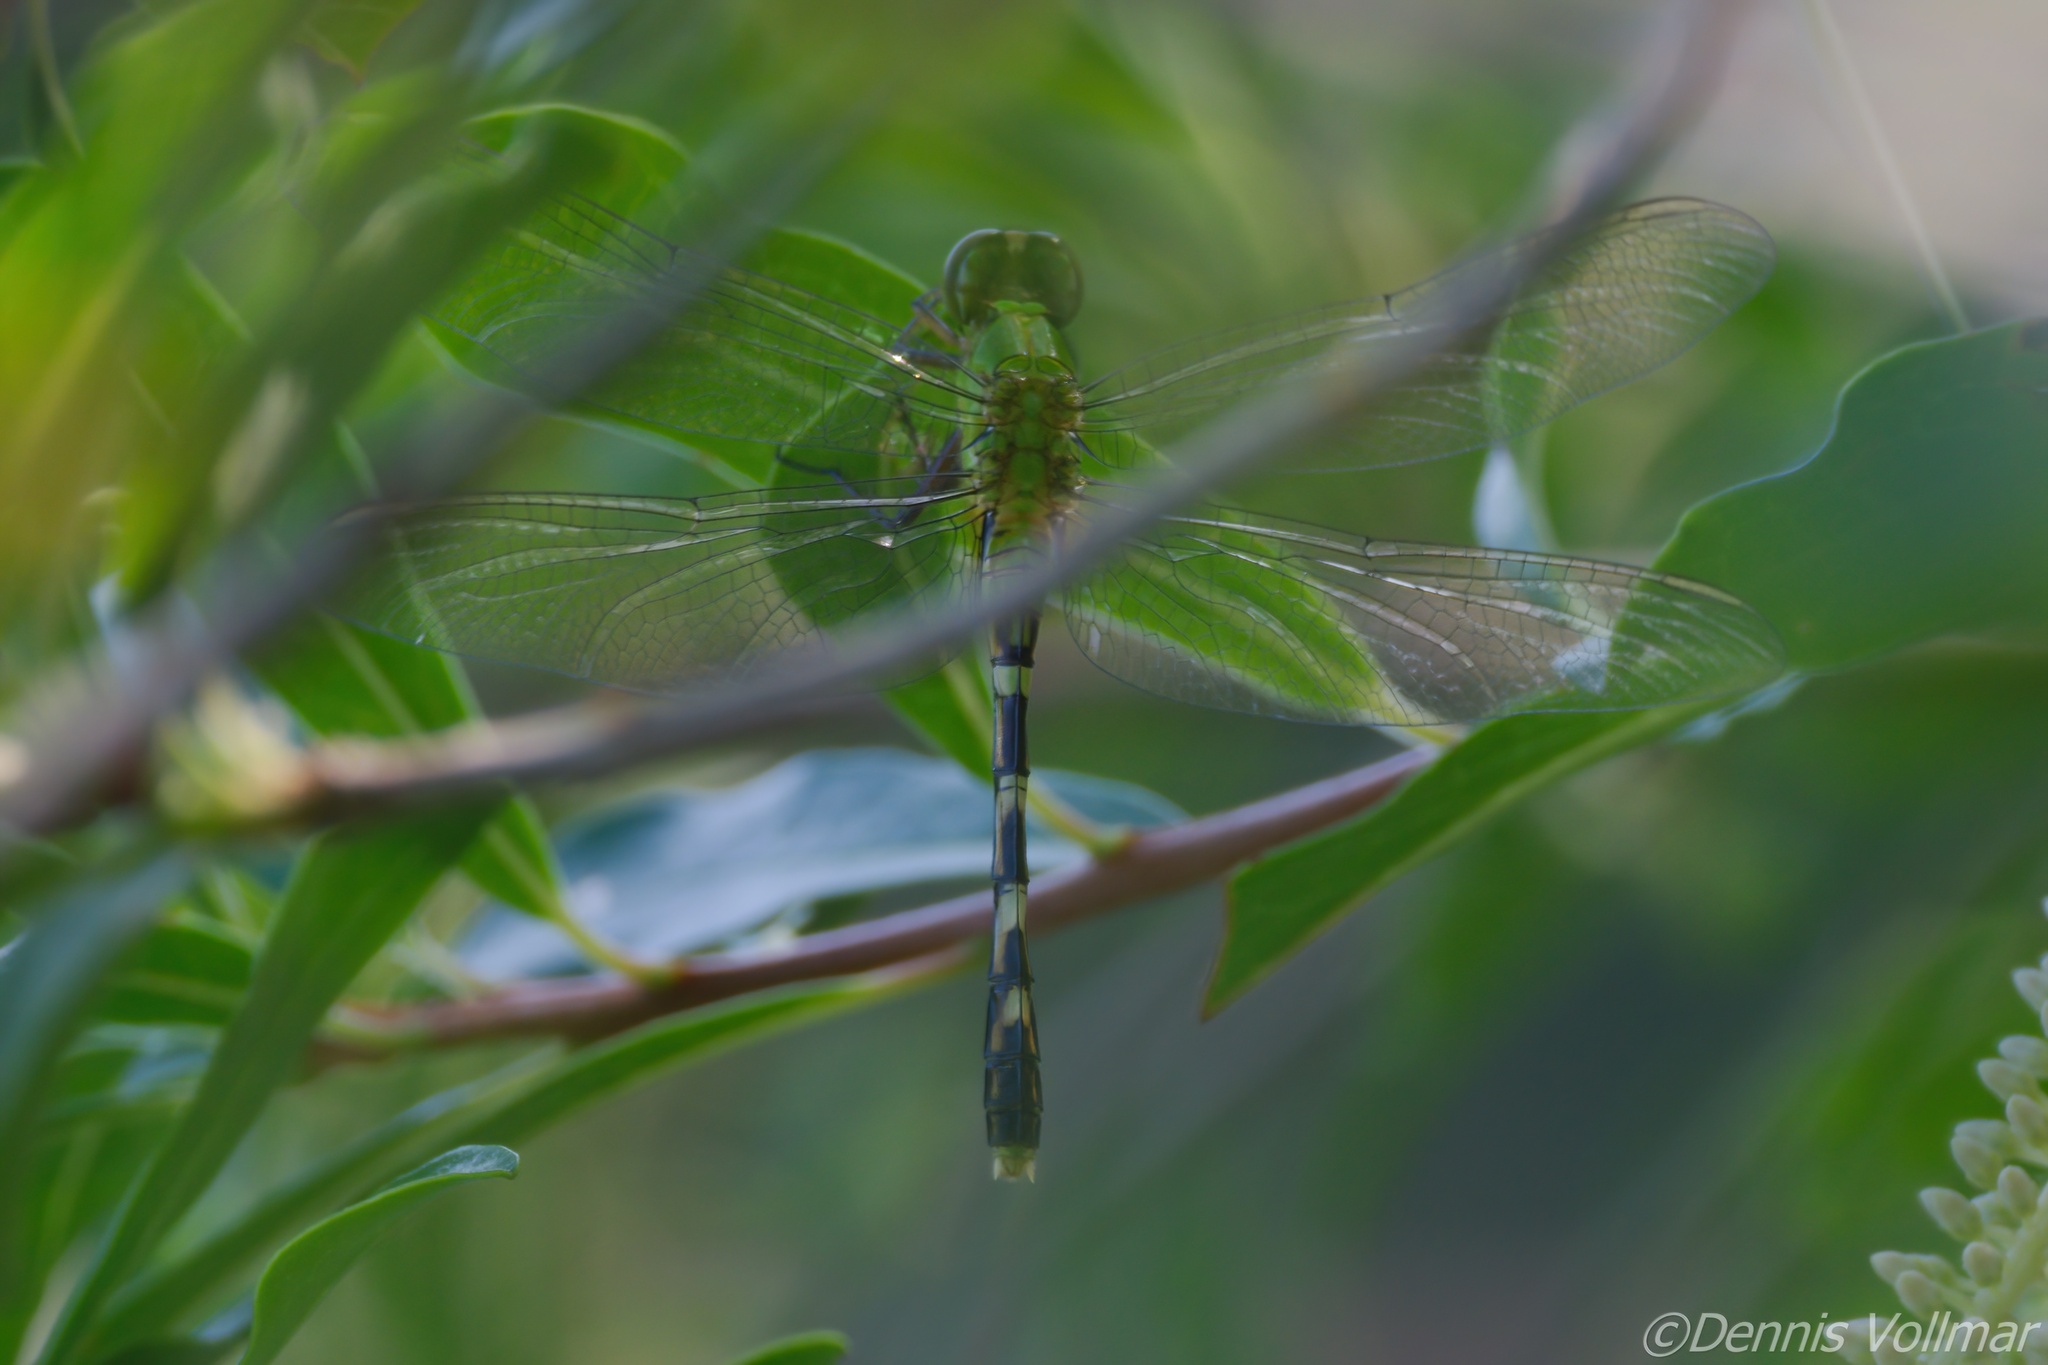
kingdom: Animalia
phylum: Arthropoda
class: Insecta
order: Odonata
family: Libellulidae
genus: Erythemis
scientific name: Erythemis simplicicollis
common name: Eastern pondhawk
